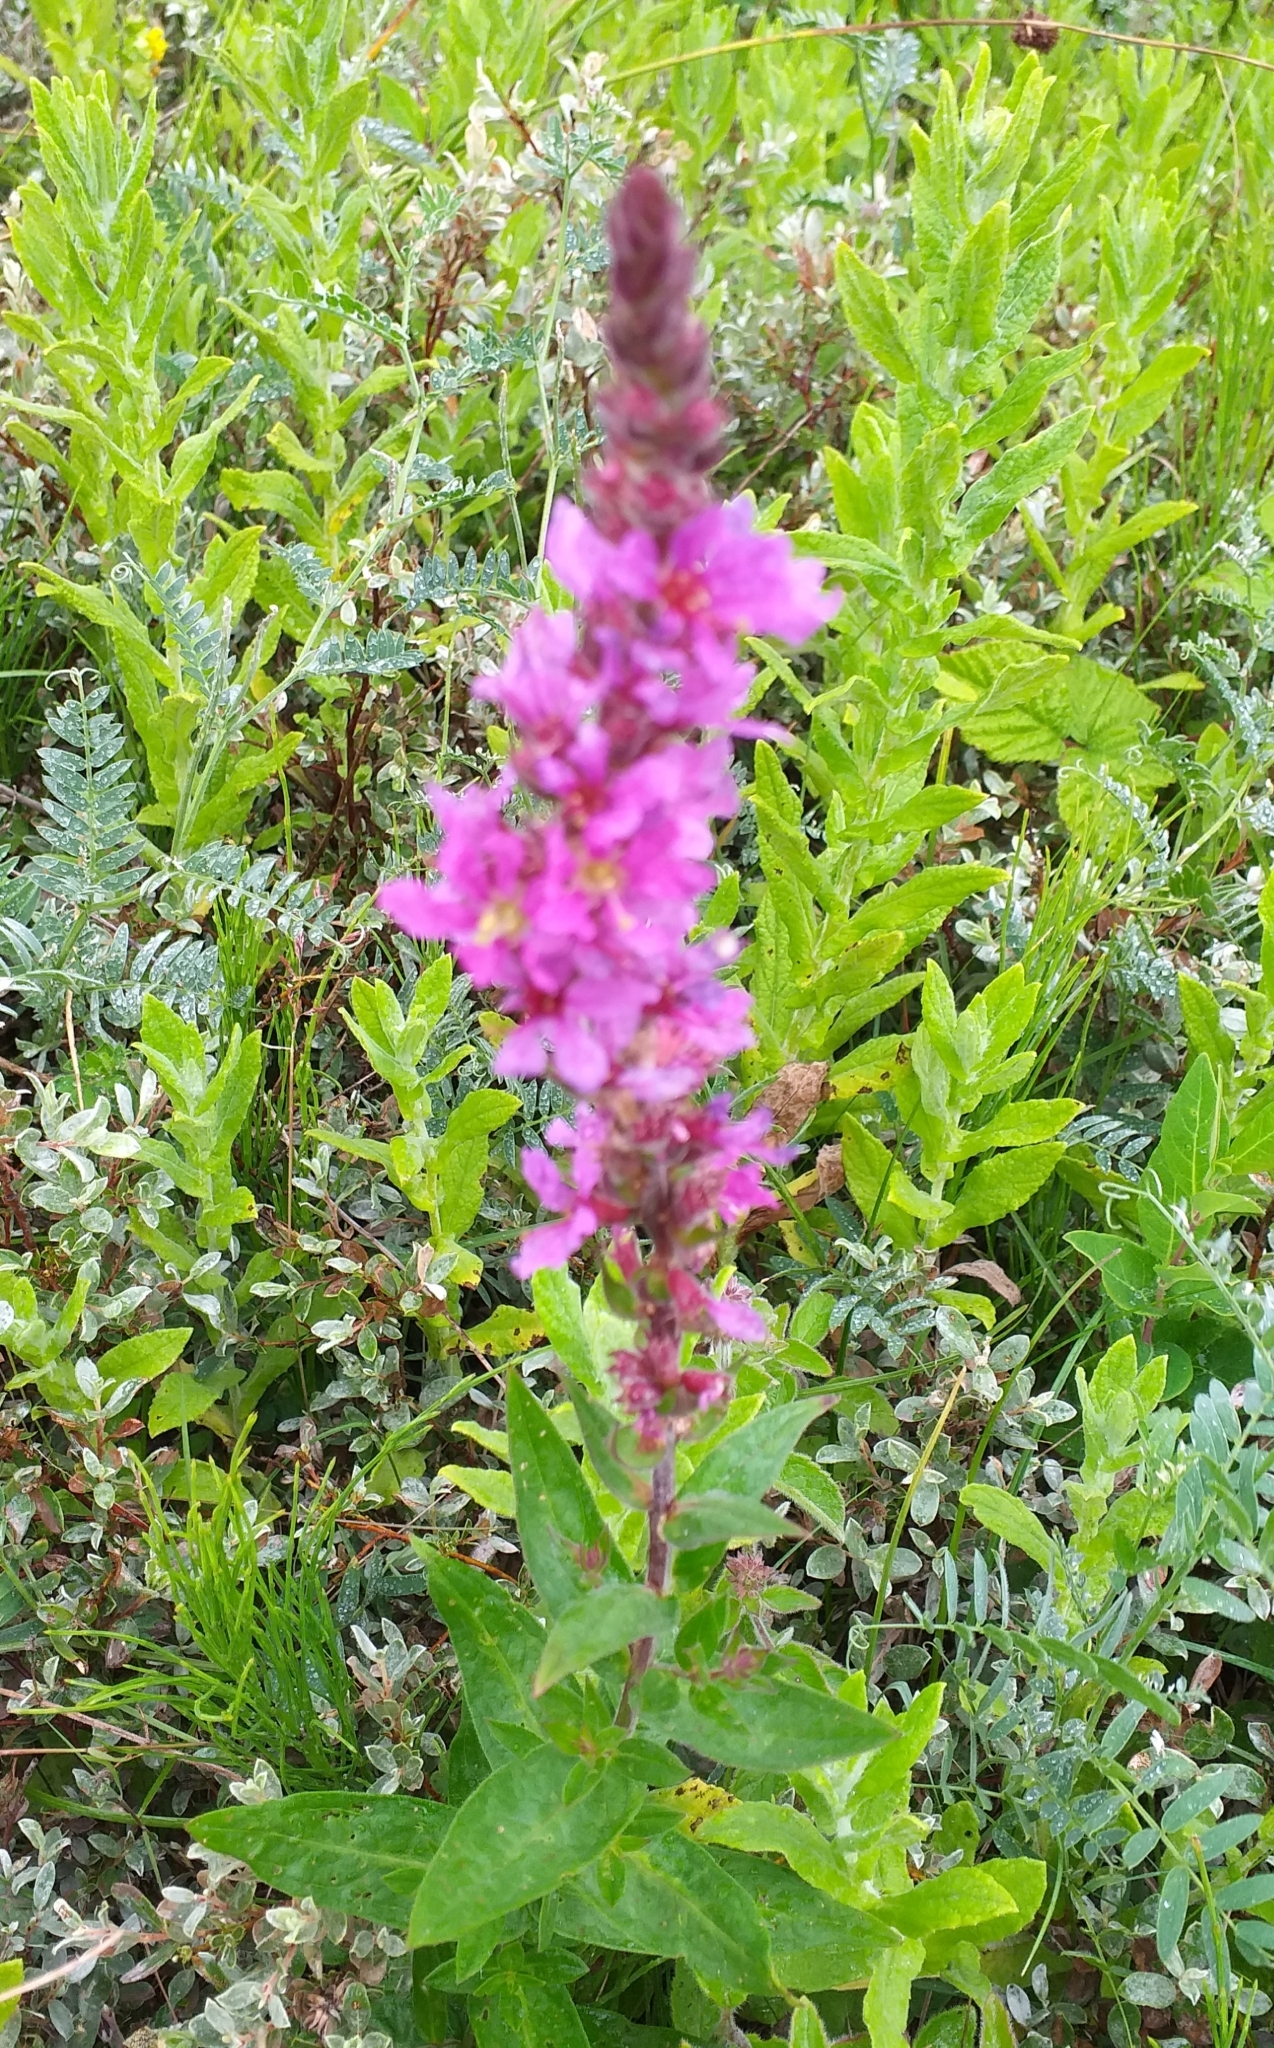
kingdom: Plantae
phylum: Tracheophyta
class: Magnoliopsida
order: Myrtales
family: Lythraceae
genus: Lythrum
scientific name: Lythrum salicaria
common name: Purple loosestrife
